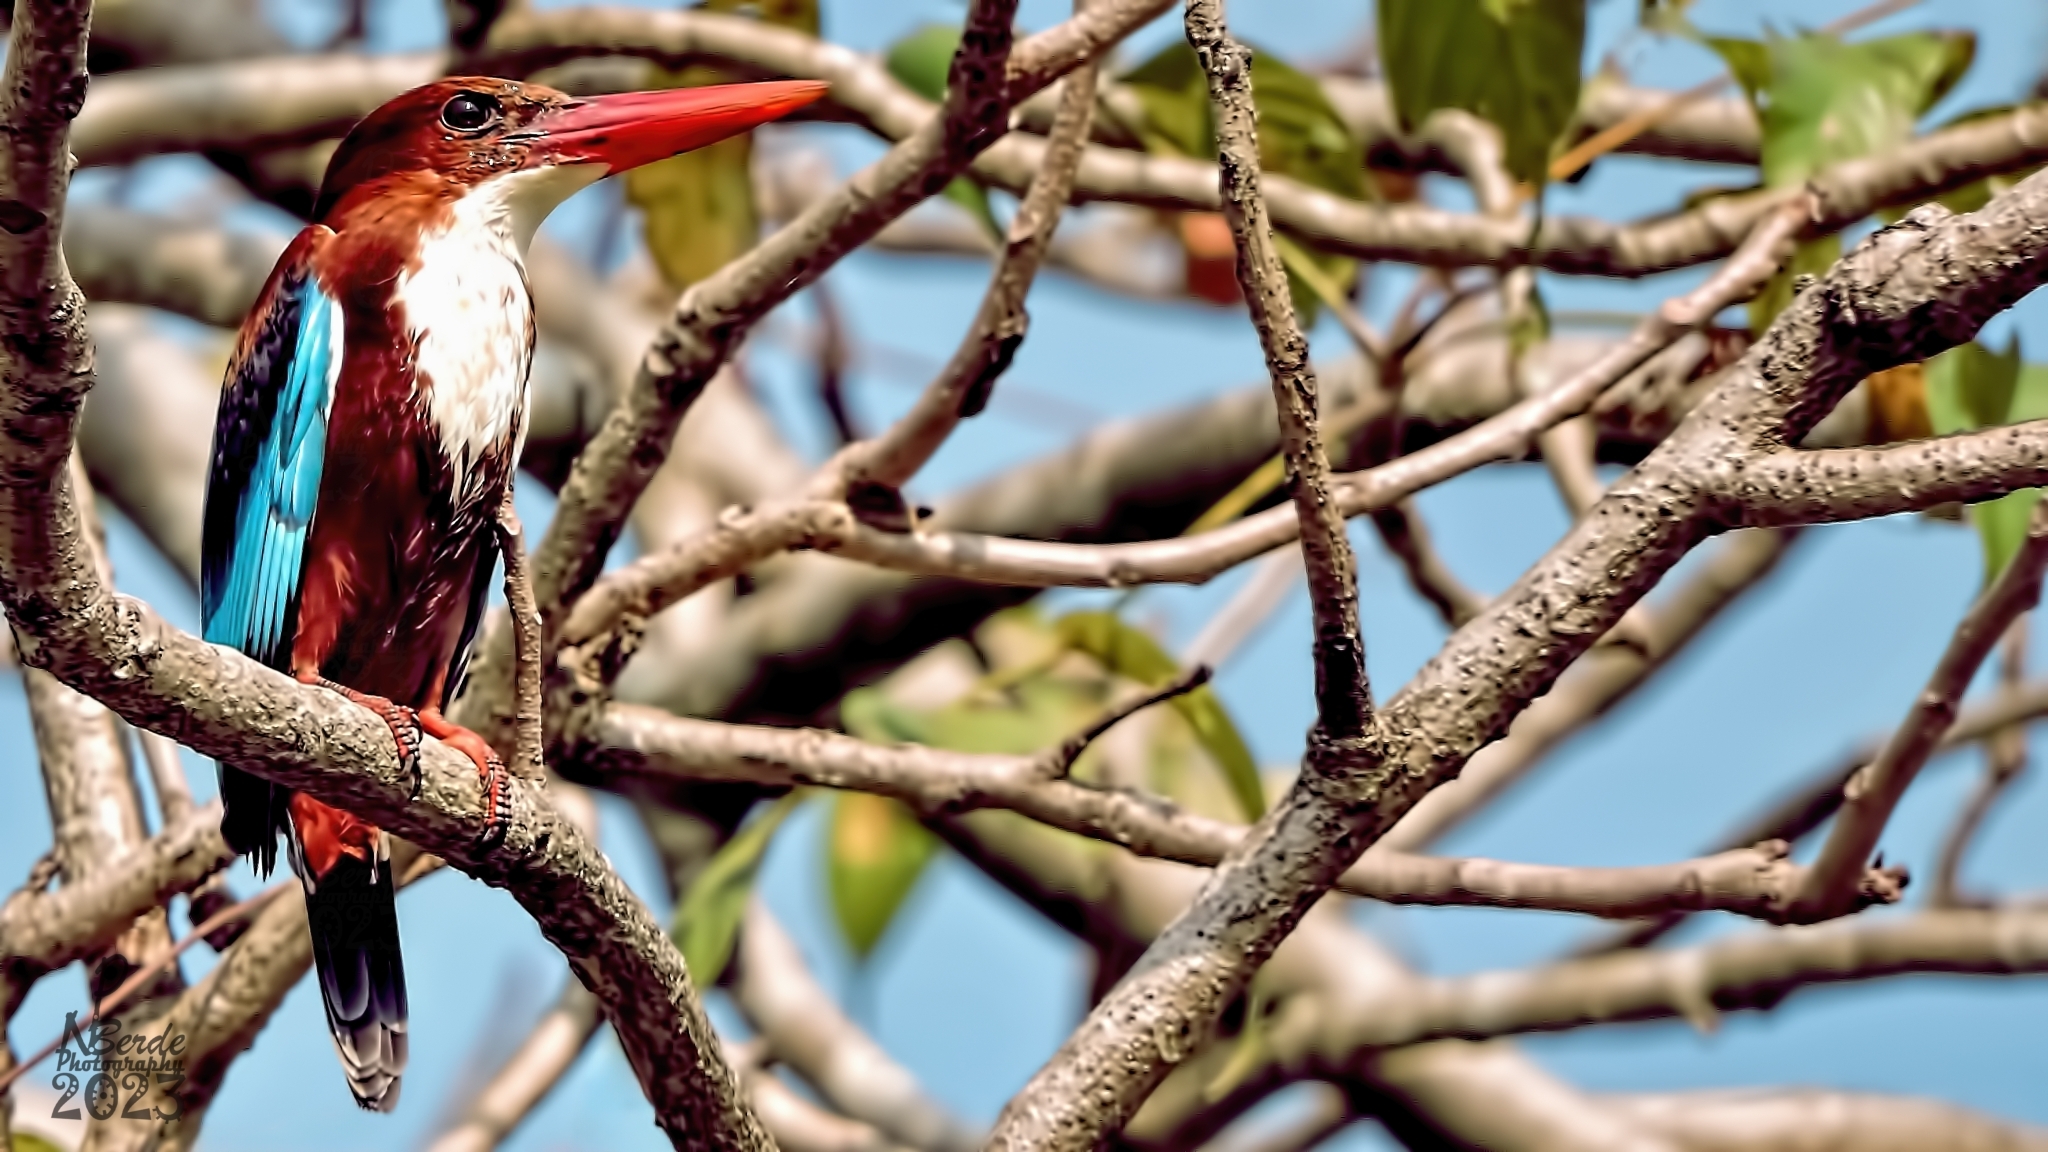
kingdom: Animalia
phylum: Chordata
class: Aves
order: Coraciiformes
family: Alcedinidae
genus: Halcyon
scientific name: Halcyon smyrnensis
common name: White-throated kingfisher
